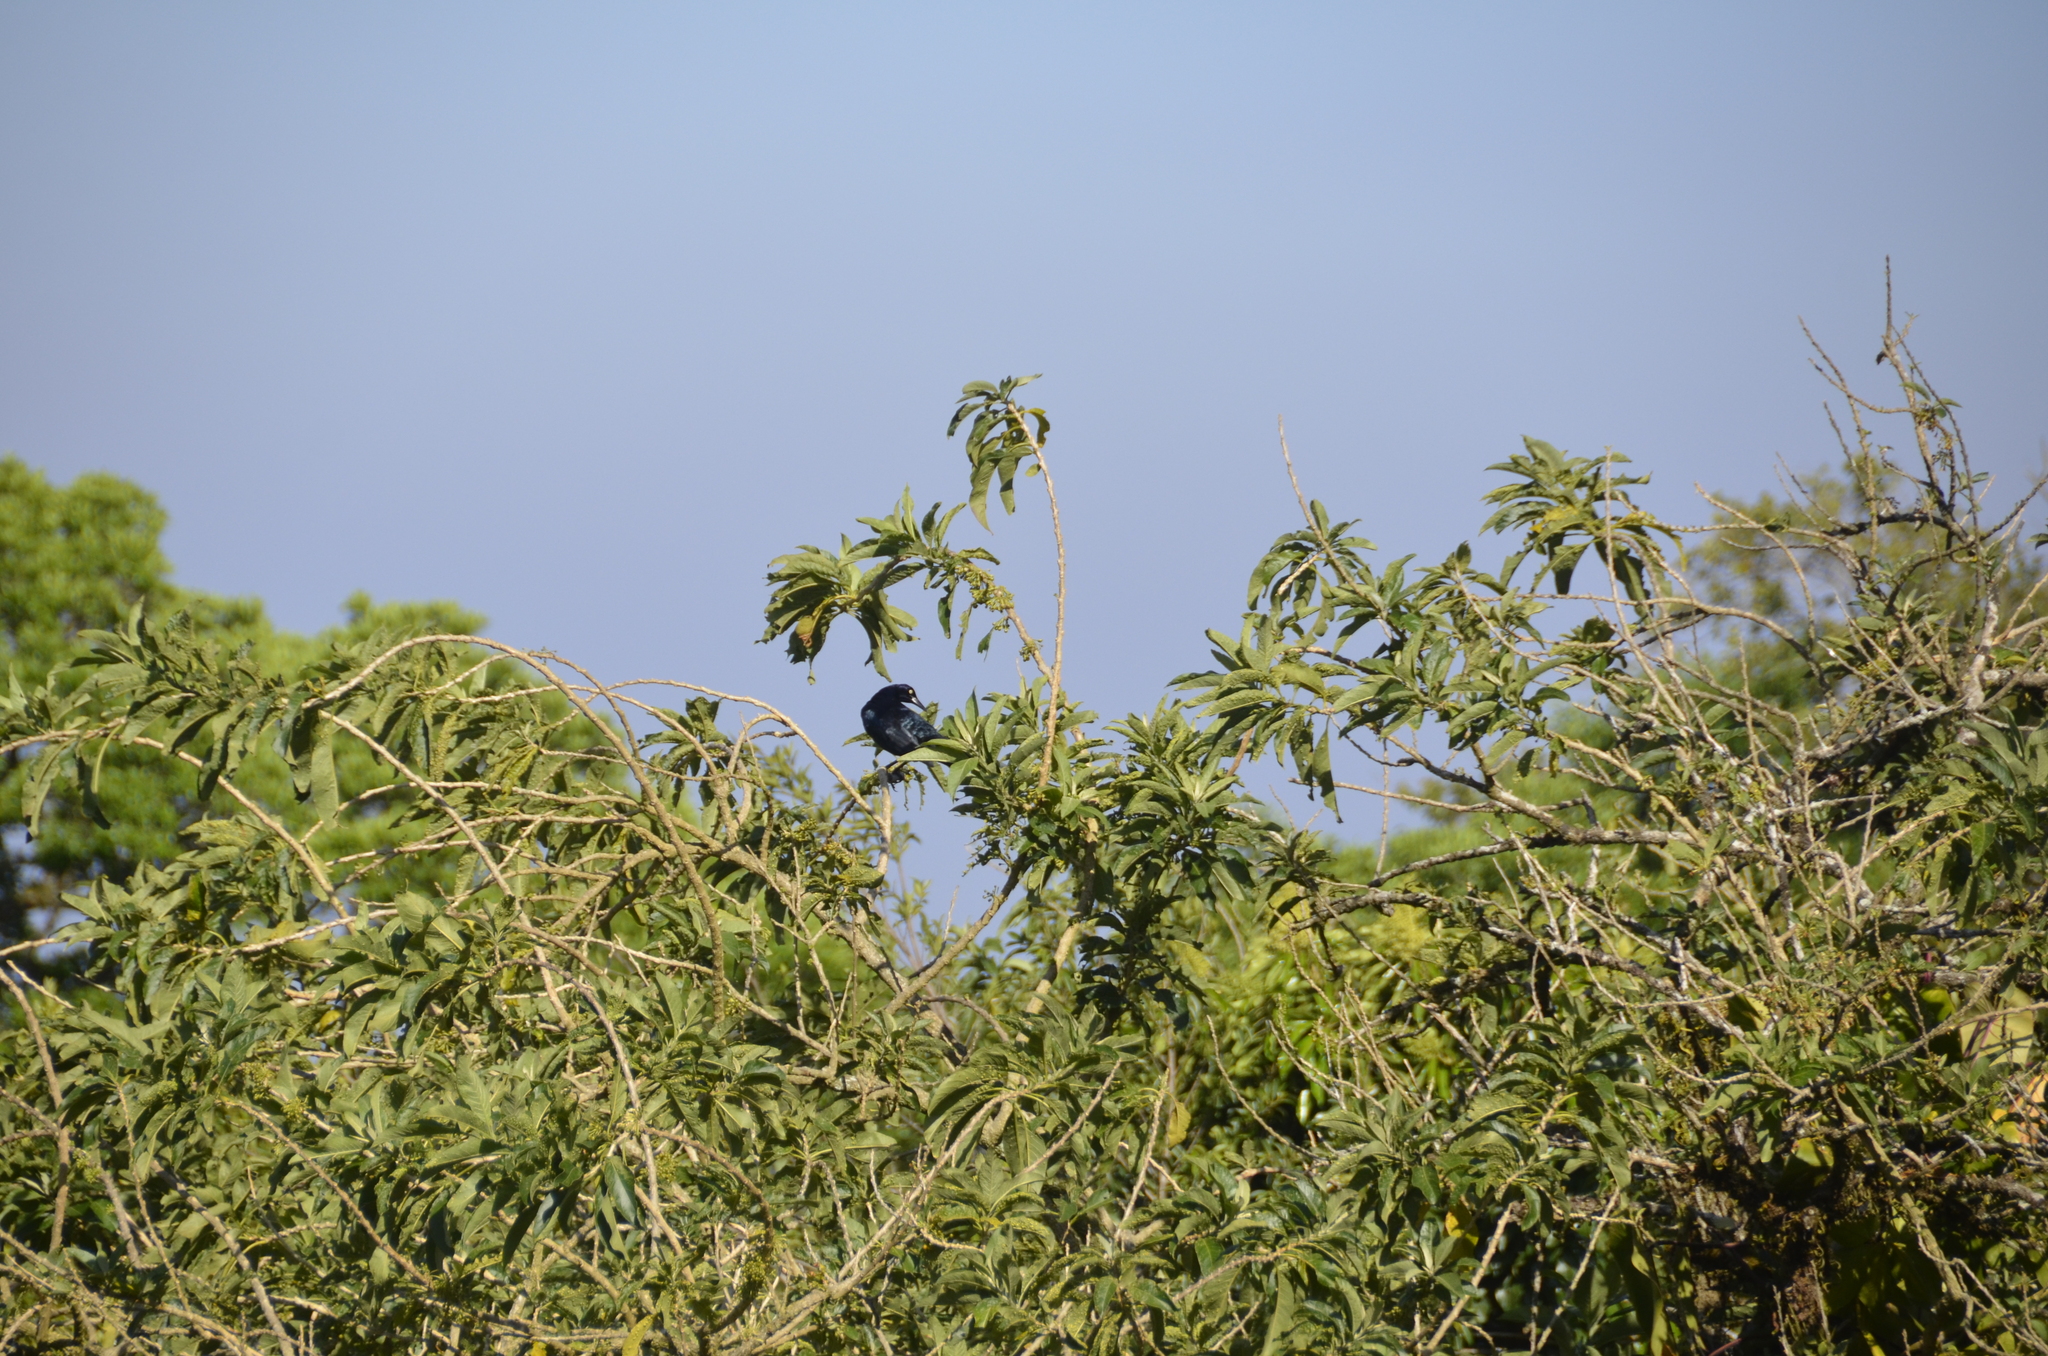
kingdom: Animalia
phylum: Chordata
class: Aves
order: Passeriformes
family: Icteridae
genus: Quiscalus
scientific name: Quiscalus mexicanus
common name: Great-tailed grackle
